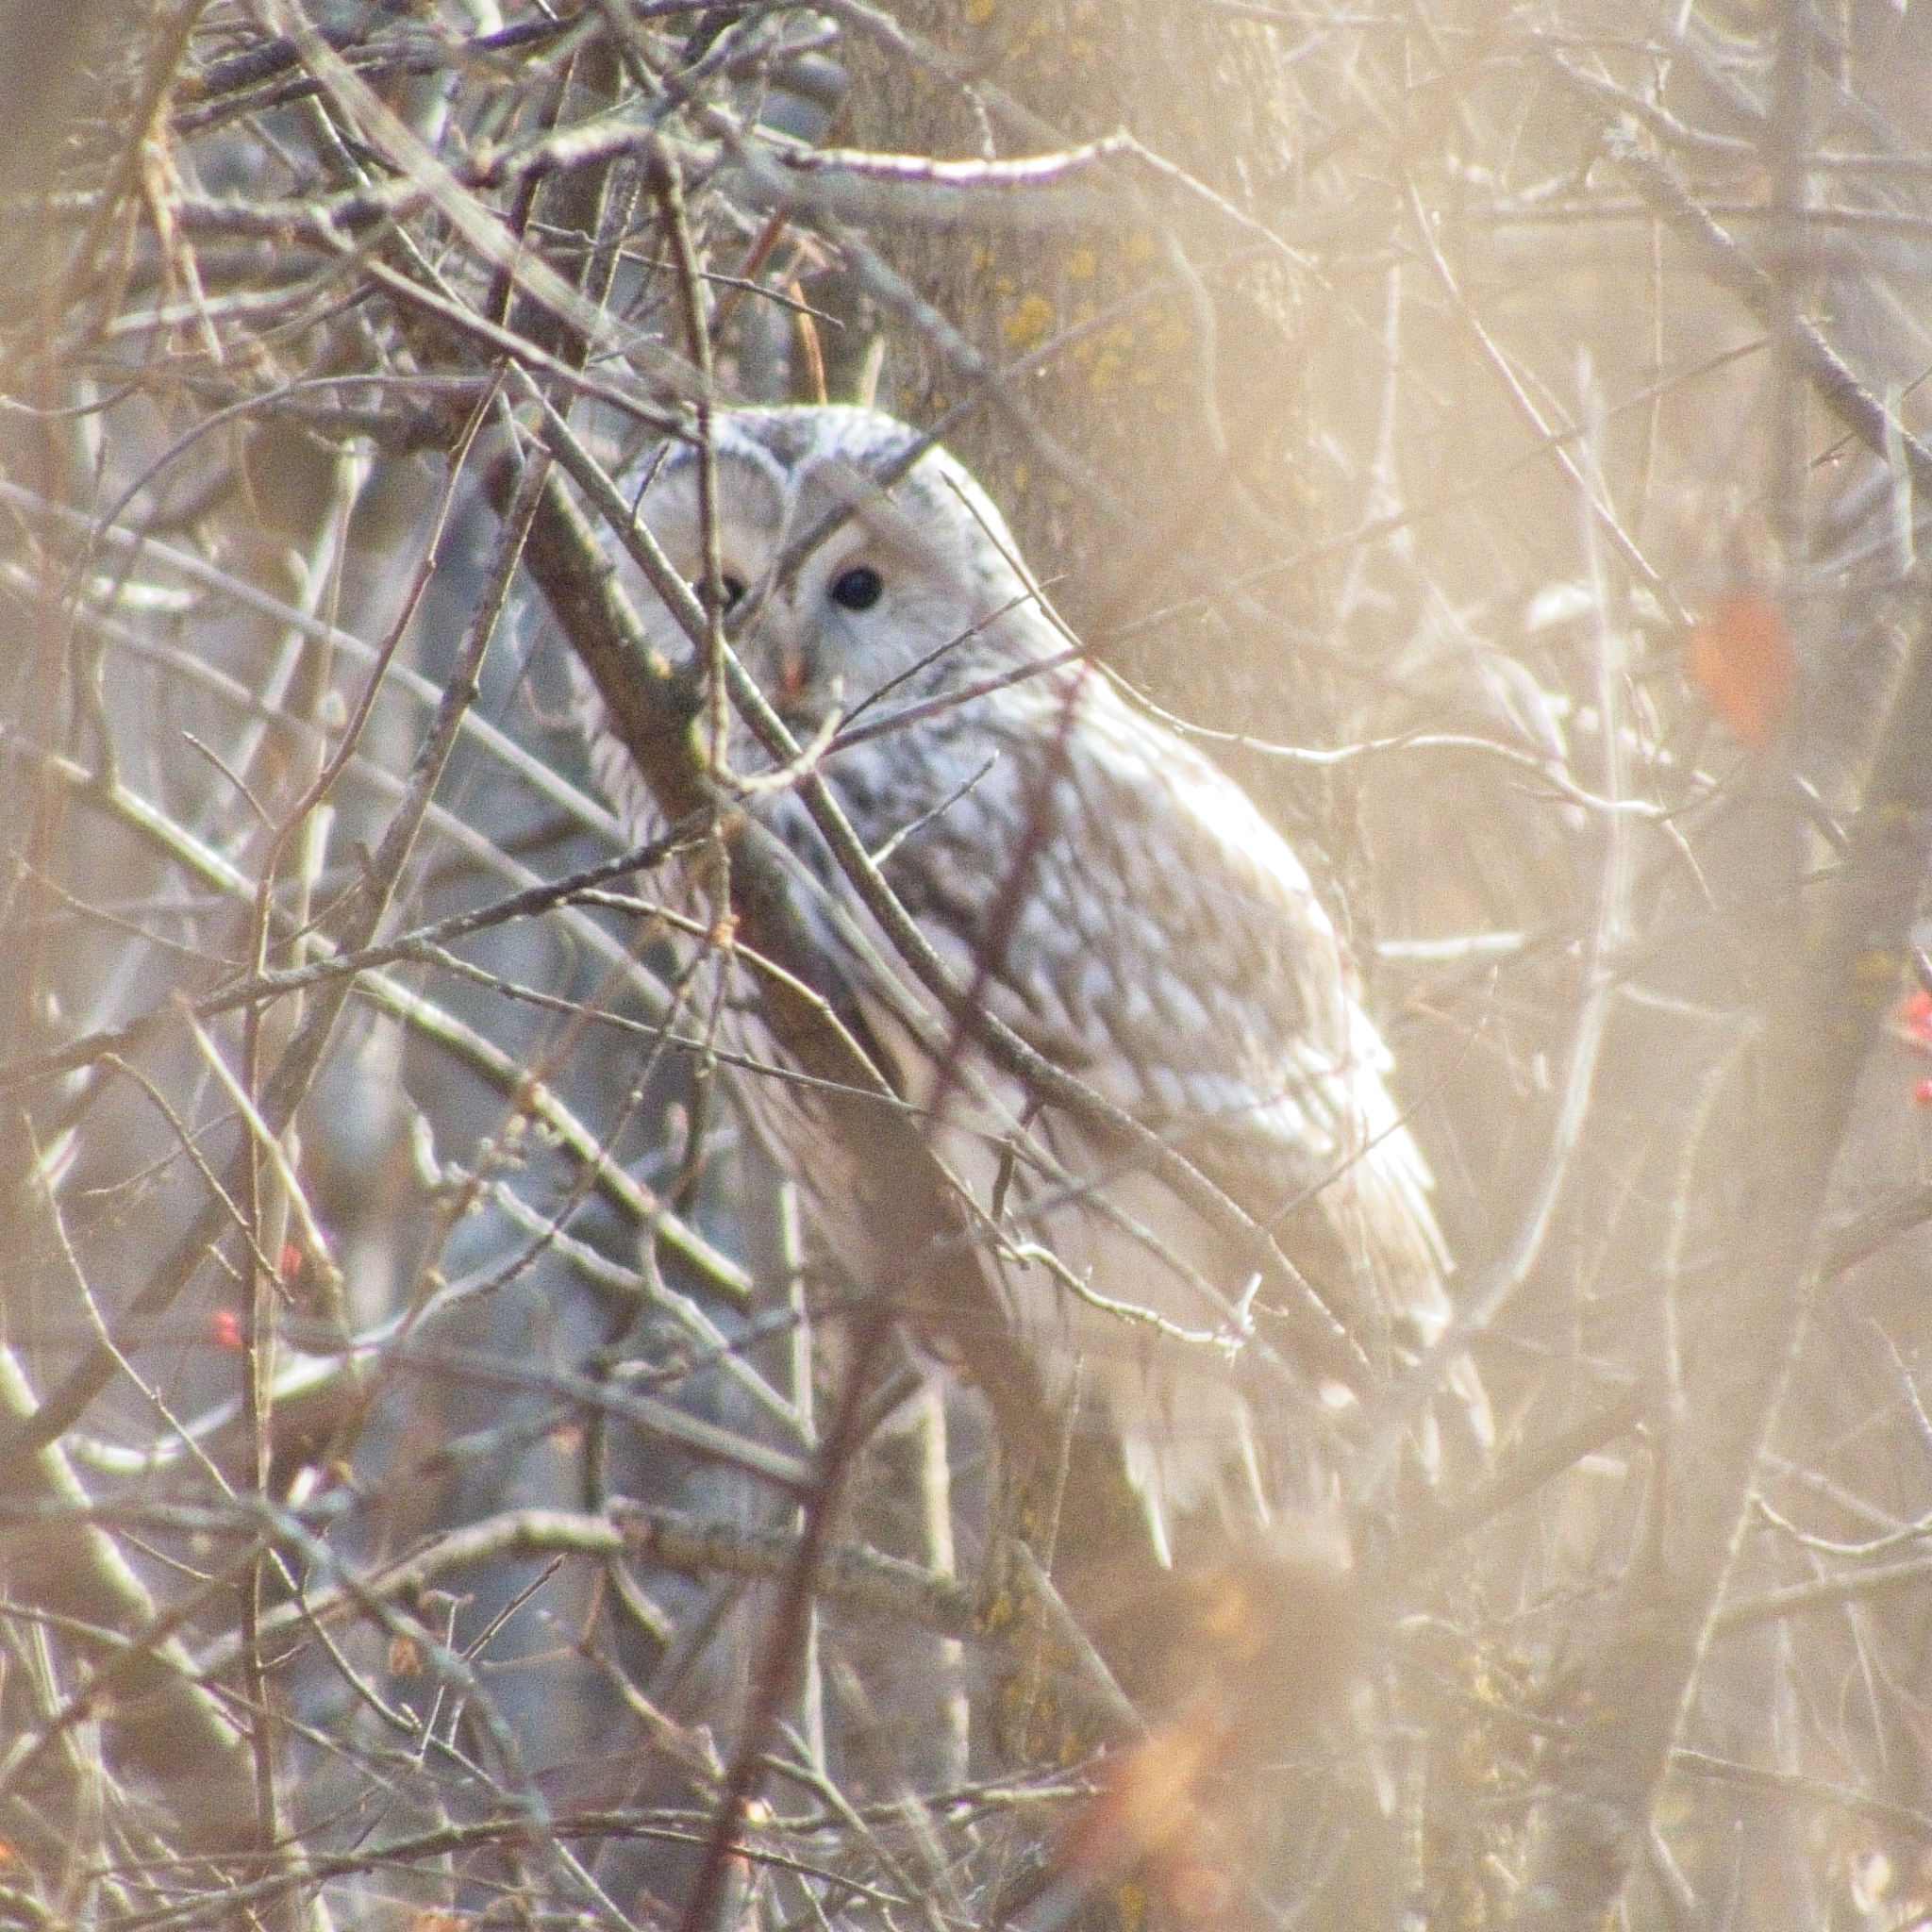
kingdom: Animalia
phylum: Chordata
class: Aves
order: Strigiformes
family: Strigidae
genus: Strix
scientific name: Strix uralensis
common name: Ural owl
